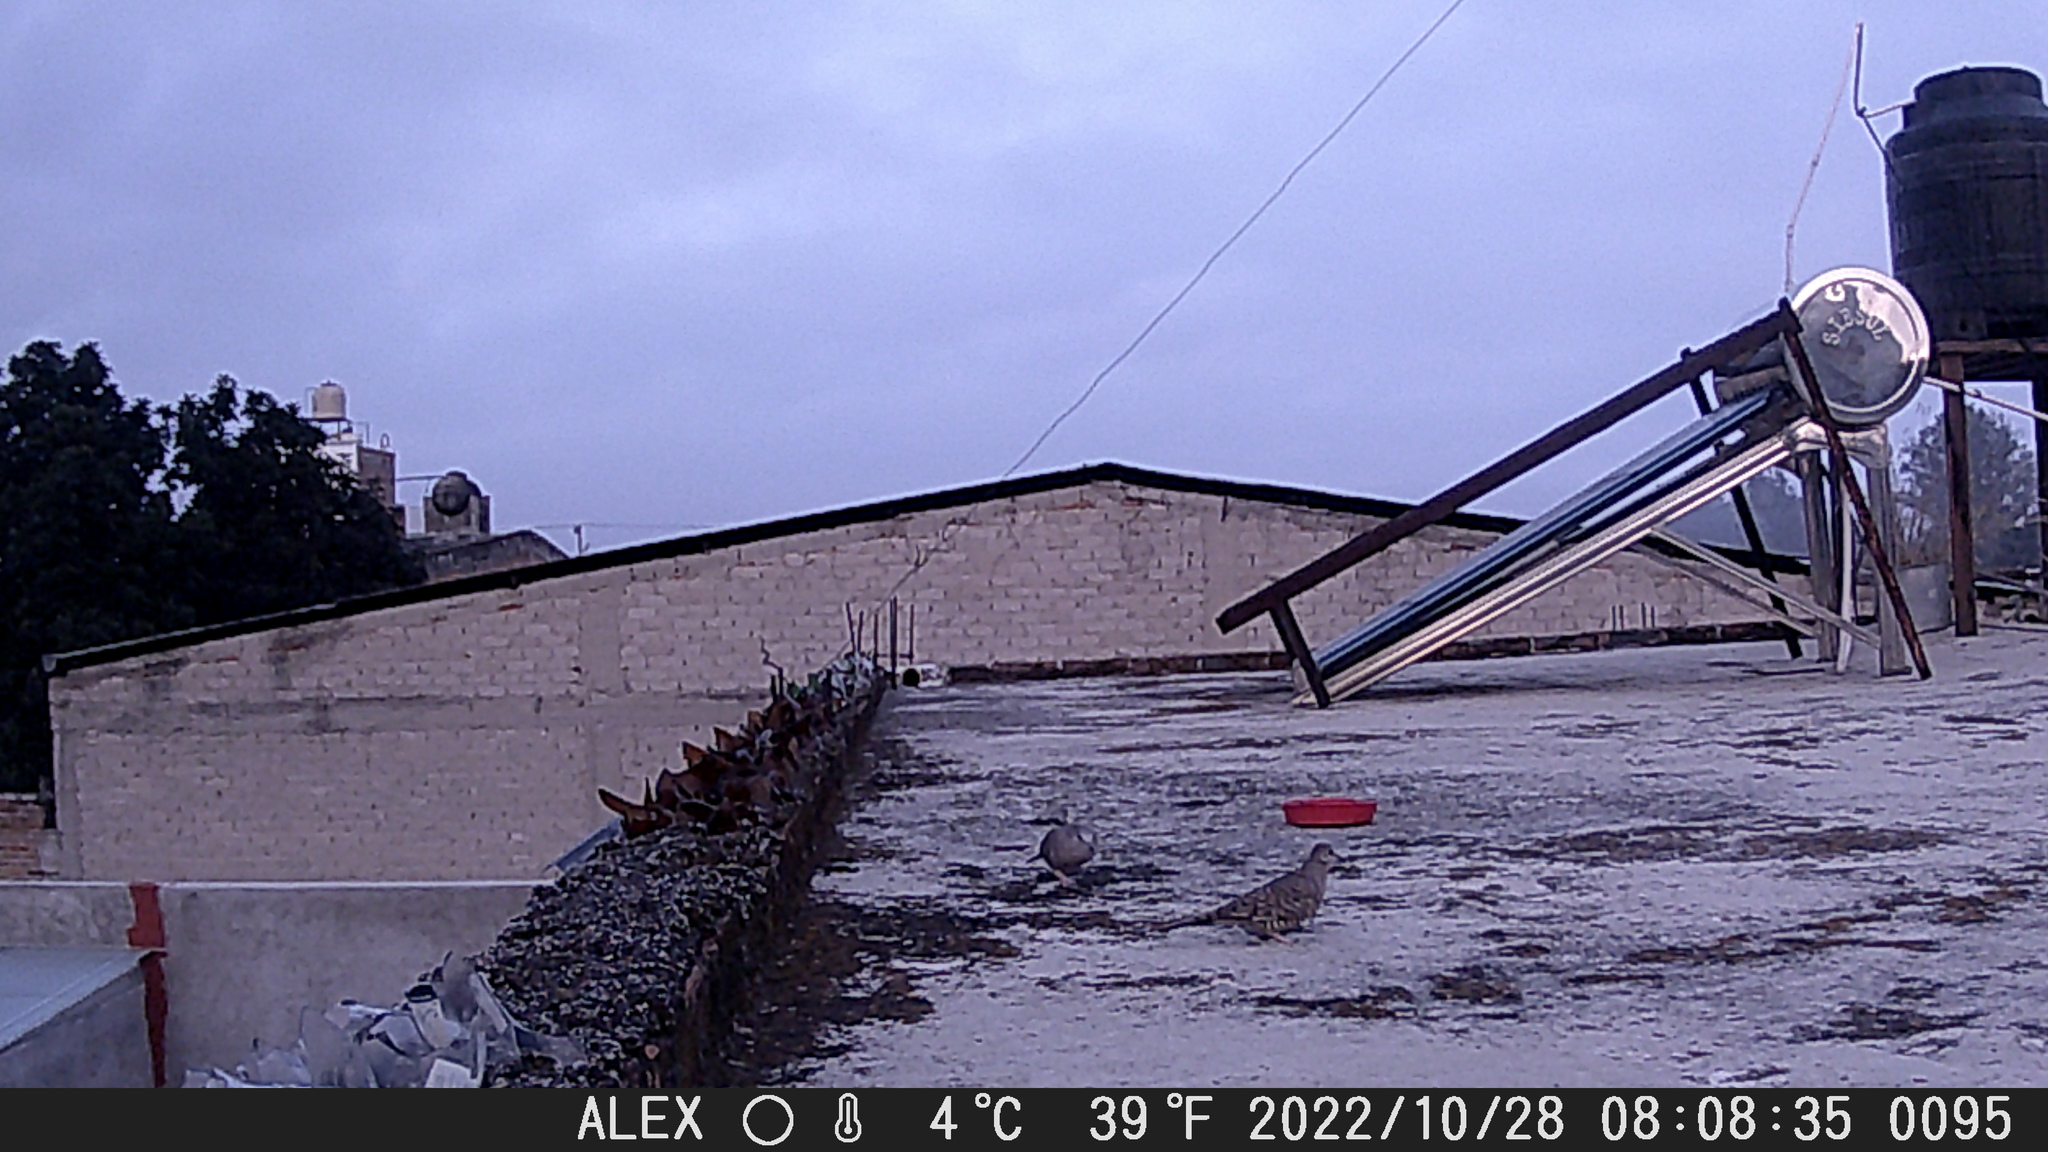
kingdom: Animalia
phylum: Chordata
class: Aves
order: Columbiformes
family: Columbidae
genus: Columbina
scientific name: Columbina inca
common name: Inca dove
